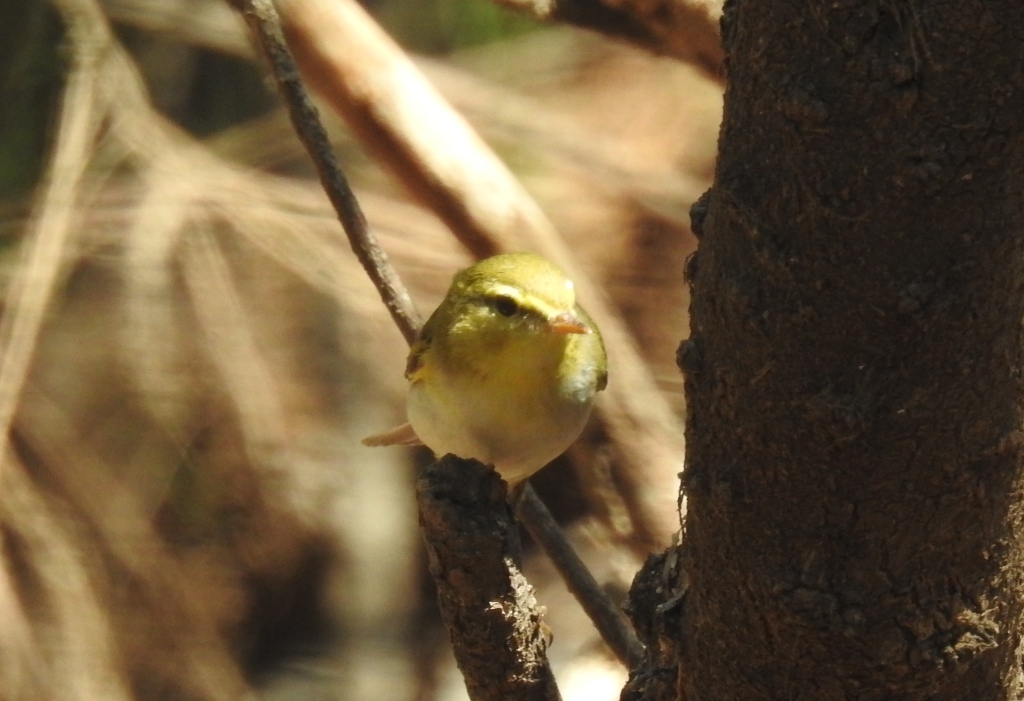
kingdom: Animalia
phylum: Chordata
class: Aves
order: Passeriformes
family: Phylloscopidae
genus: Phylloscopus
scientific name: Phylloscopus sibillatrix
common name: Wood warbler
